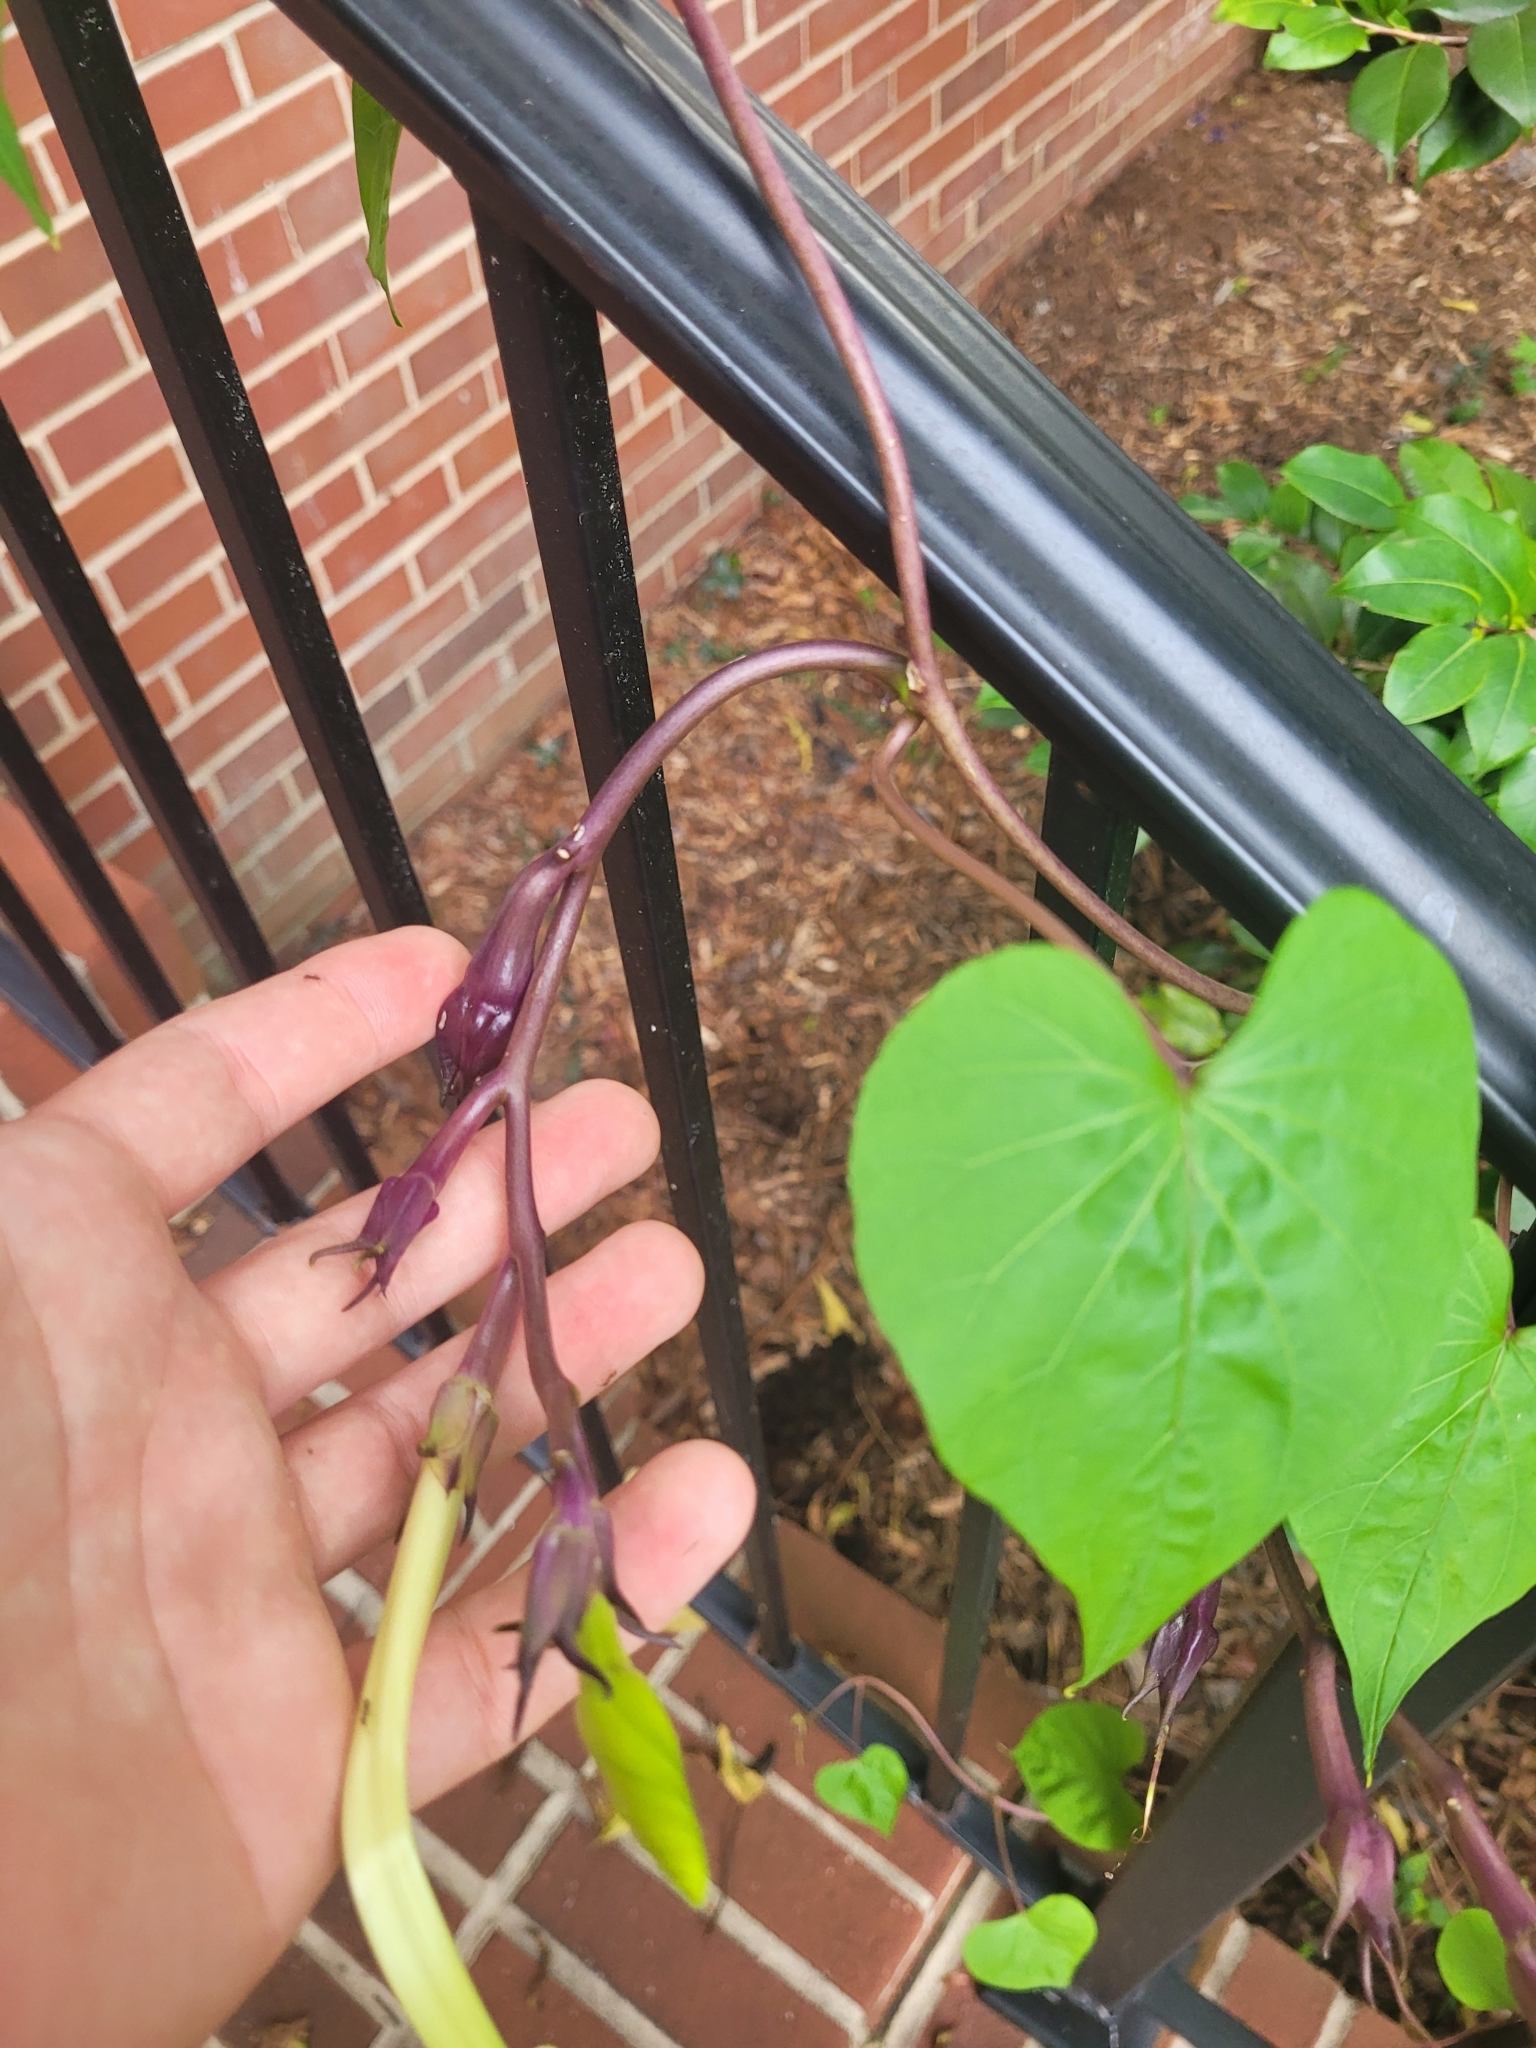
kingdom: Plantae
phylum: Tracheophyta
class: Magnoliopsida
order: Solanales
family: Convolvulaceae
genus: Ipomoea
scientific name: Ipomoea alba
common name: Moonflower
